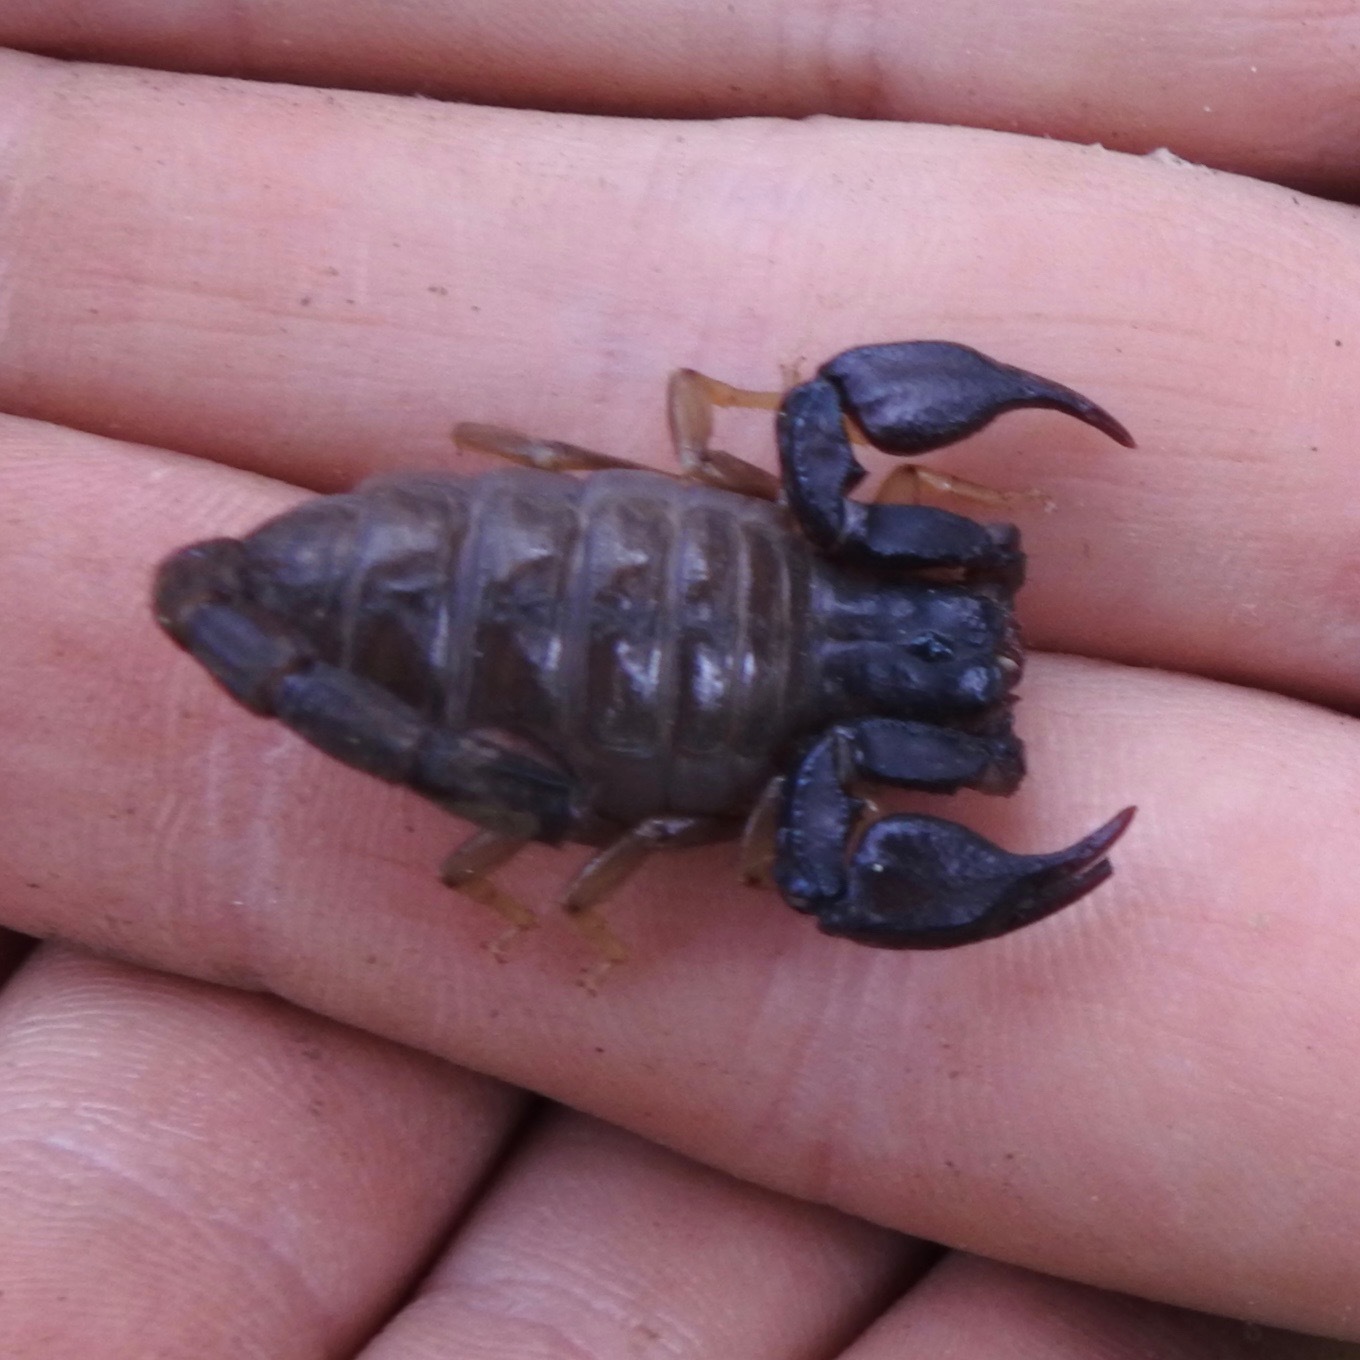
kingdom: Animalia
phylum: Arthropoda
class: Arachnida
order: Scorpiones
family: Chactidae
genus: Uroctonus
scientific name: Uroctonus mordax
